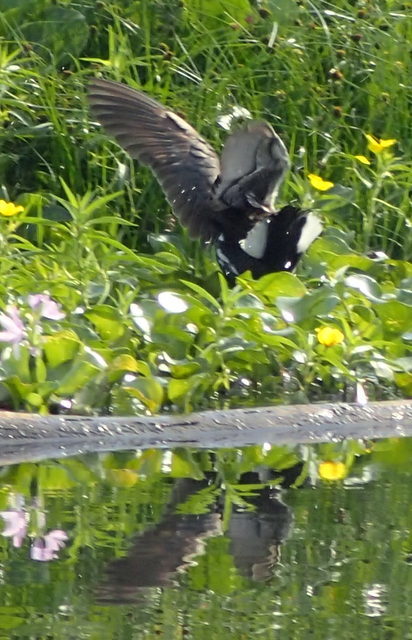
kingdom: Animalia
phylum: Chordata
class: Aves
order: Gruiformes
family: Rallidae
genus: Gallinula
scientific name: Gallinula chloropus
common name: Common moorhen
